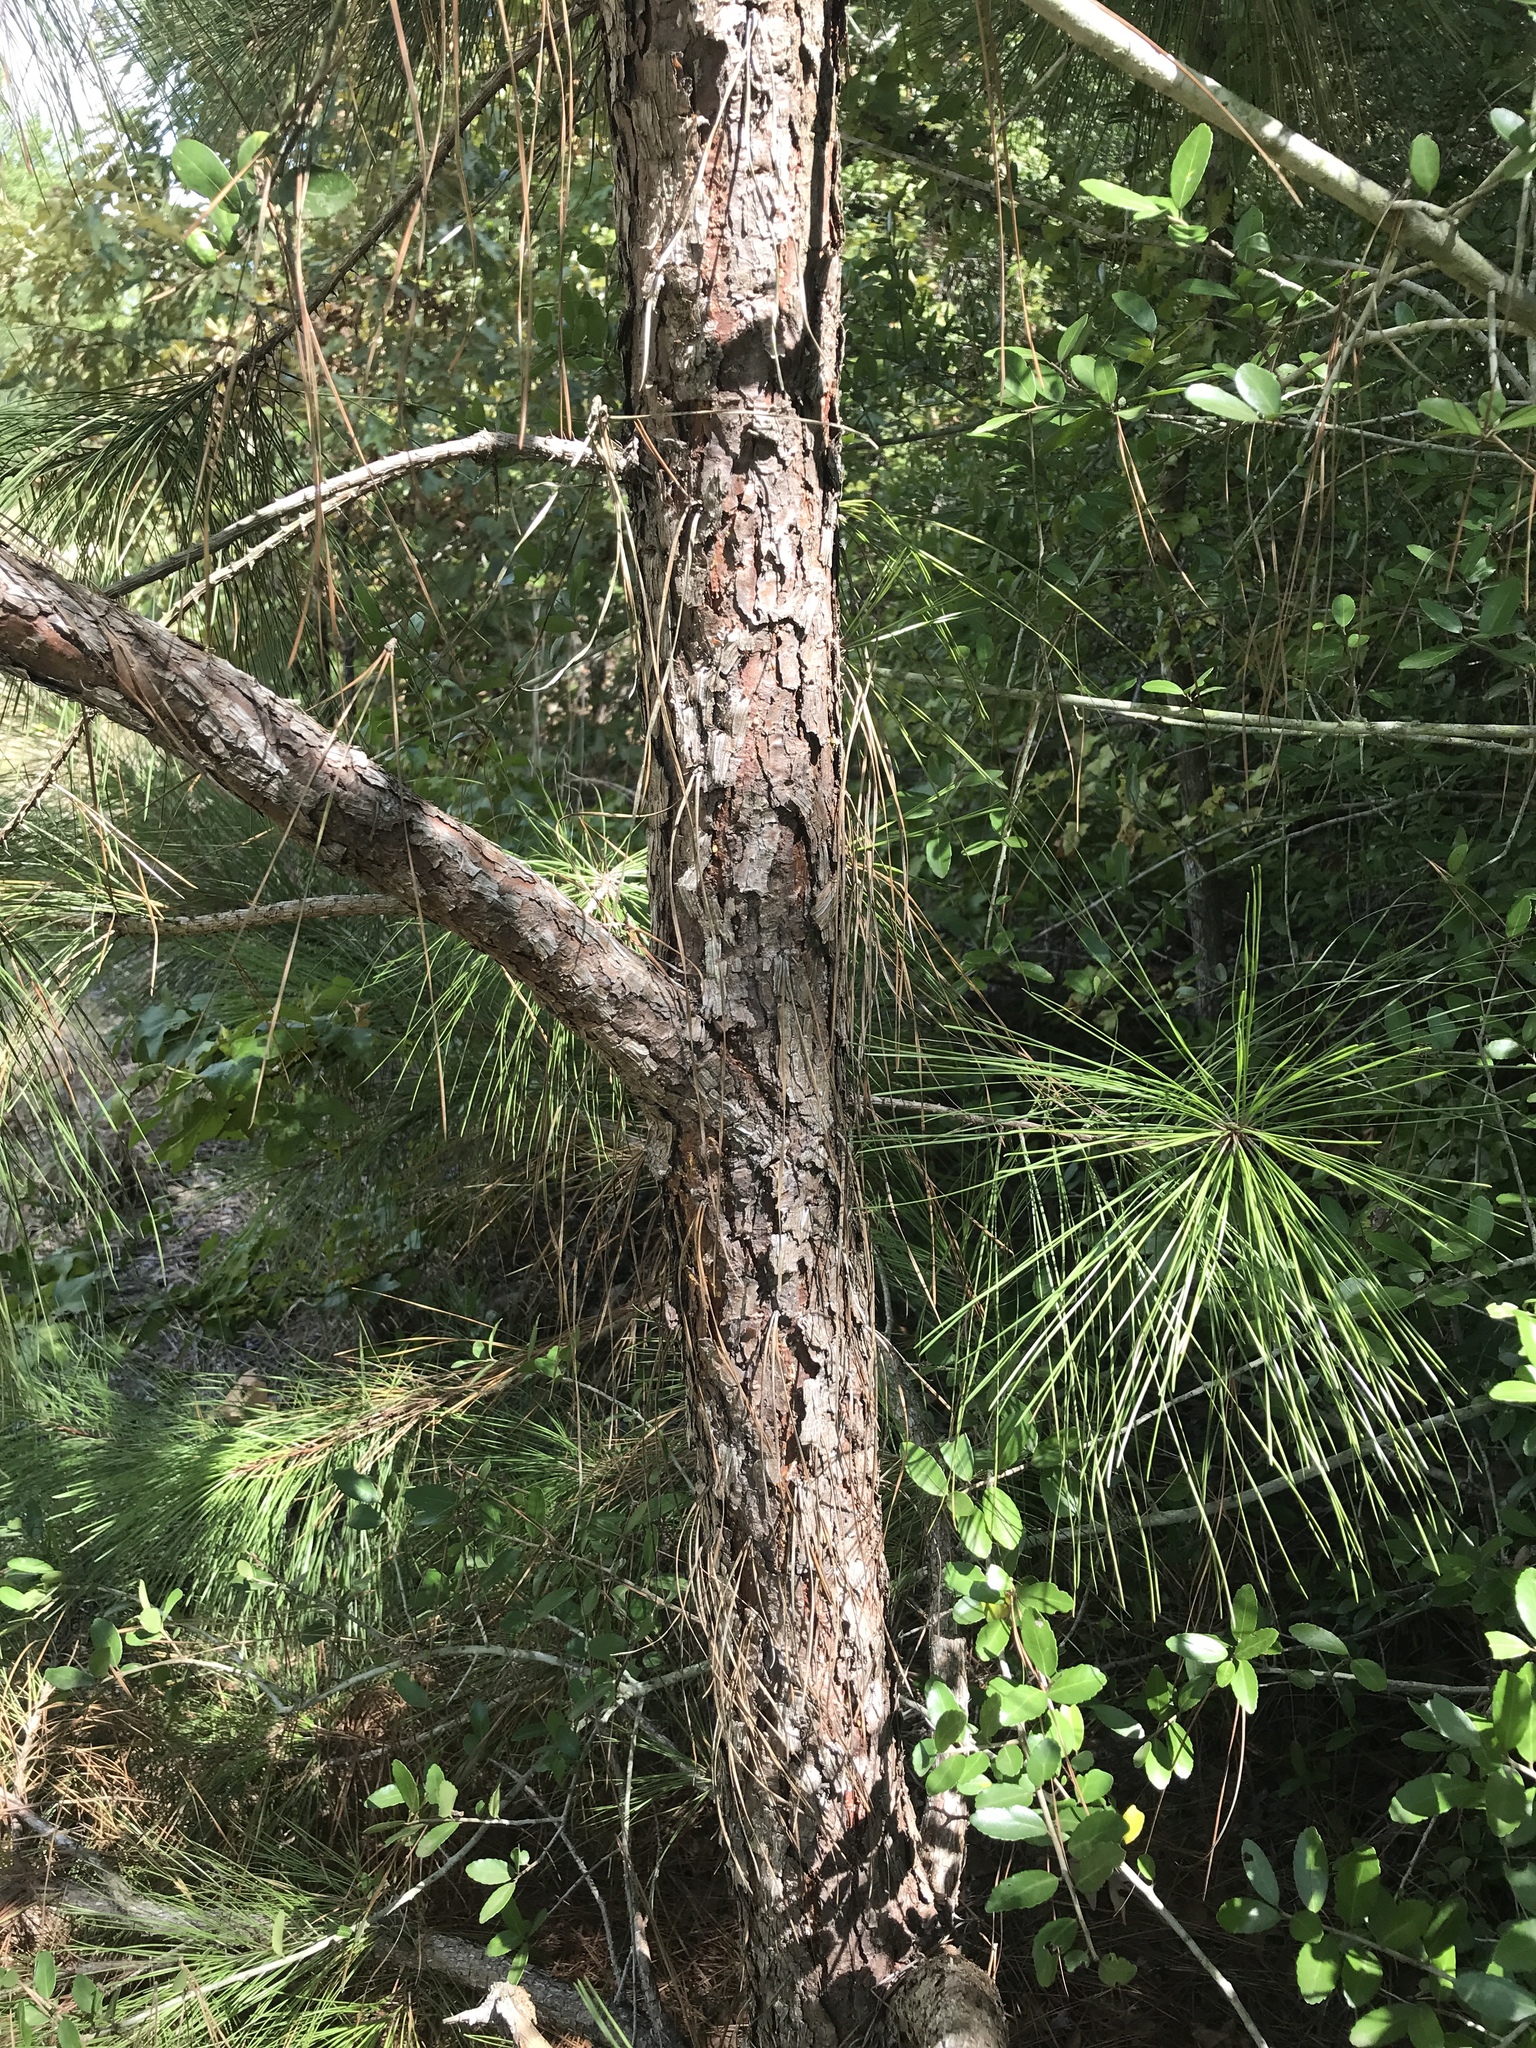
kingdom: Plantae
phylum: Tracheophyta
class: Pinopsida
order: Pinales
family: Pinaceae
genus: Pinus
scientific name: Pinus taeda
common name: Loblolly pine
